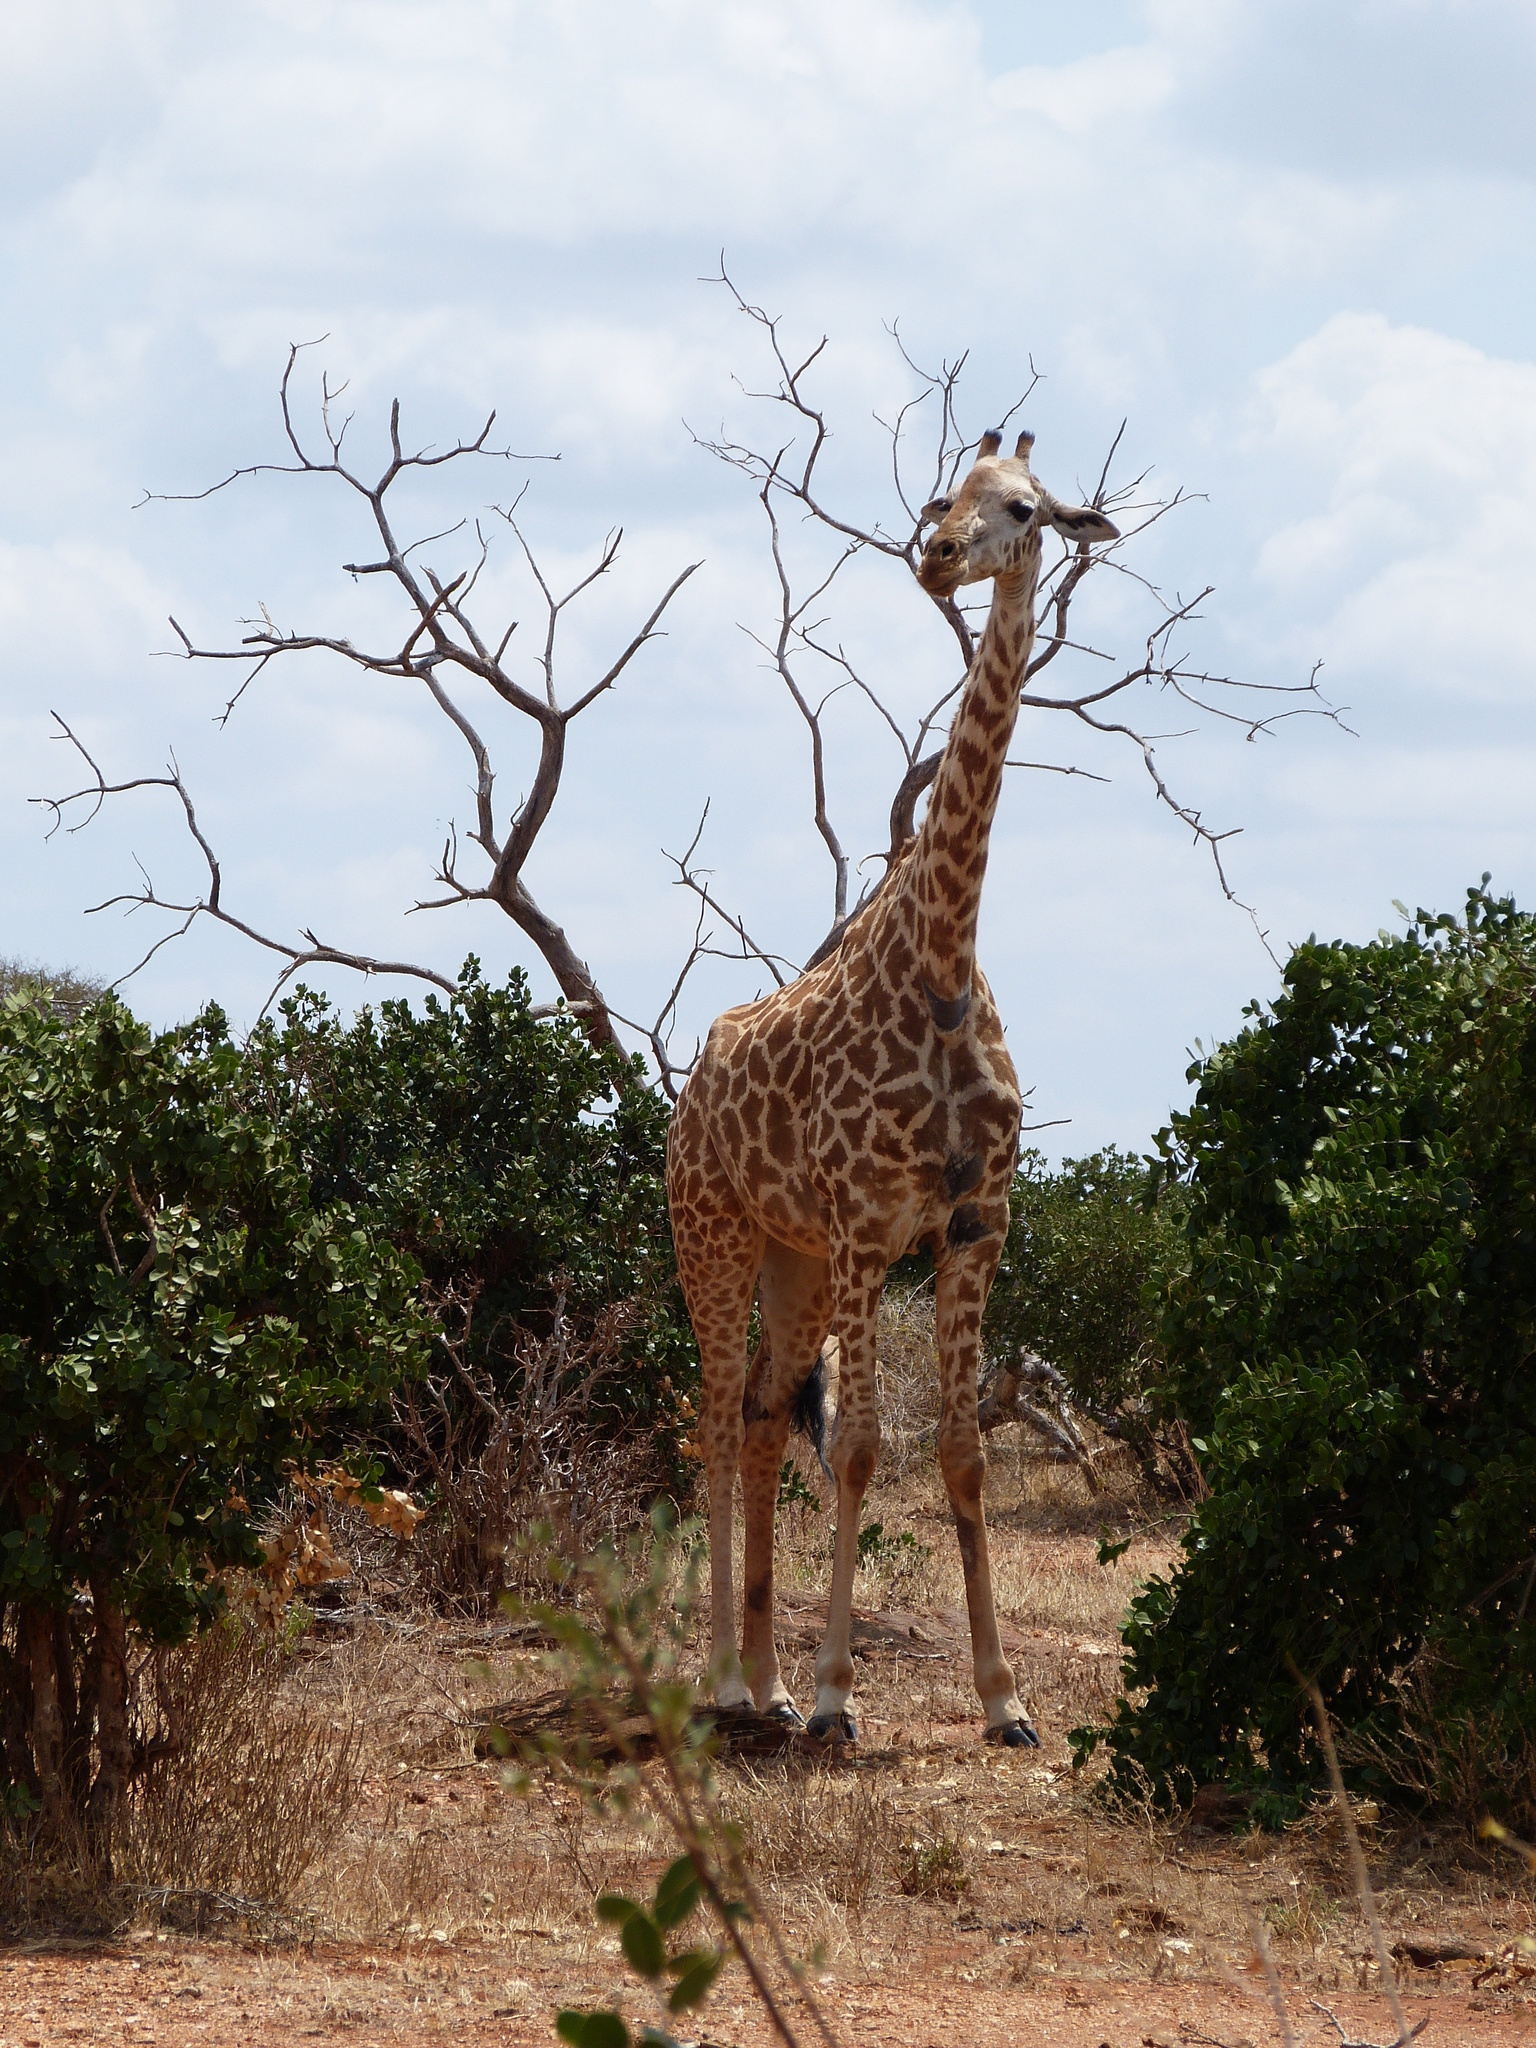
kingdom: Animalia
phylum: Chordata
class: Mammalia
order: Artiodactyla
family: Giraffidae
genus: Giraffa
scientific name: Giraffa tippelskirchi
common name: Masai giraffe
